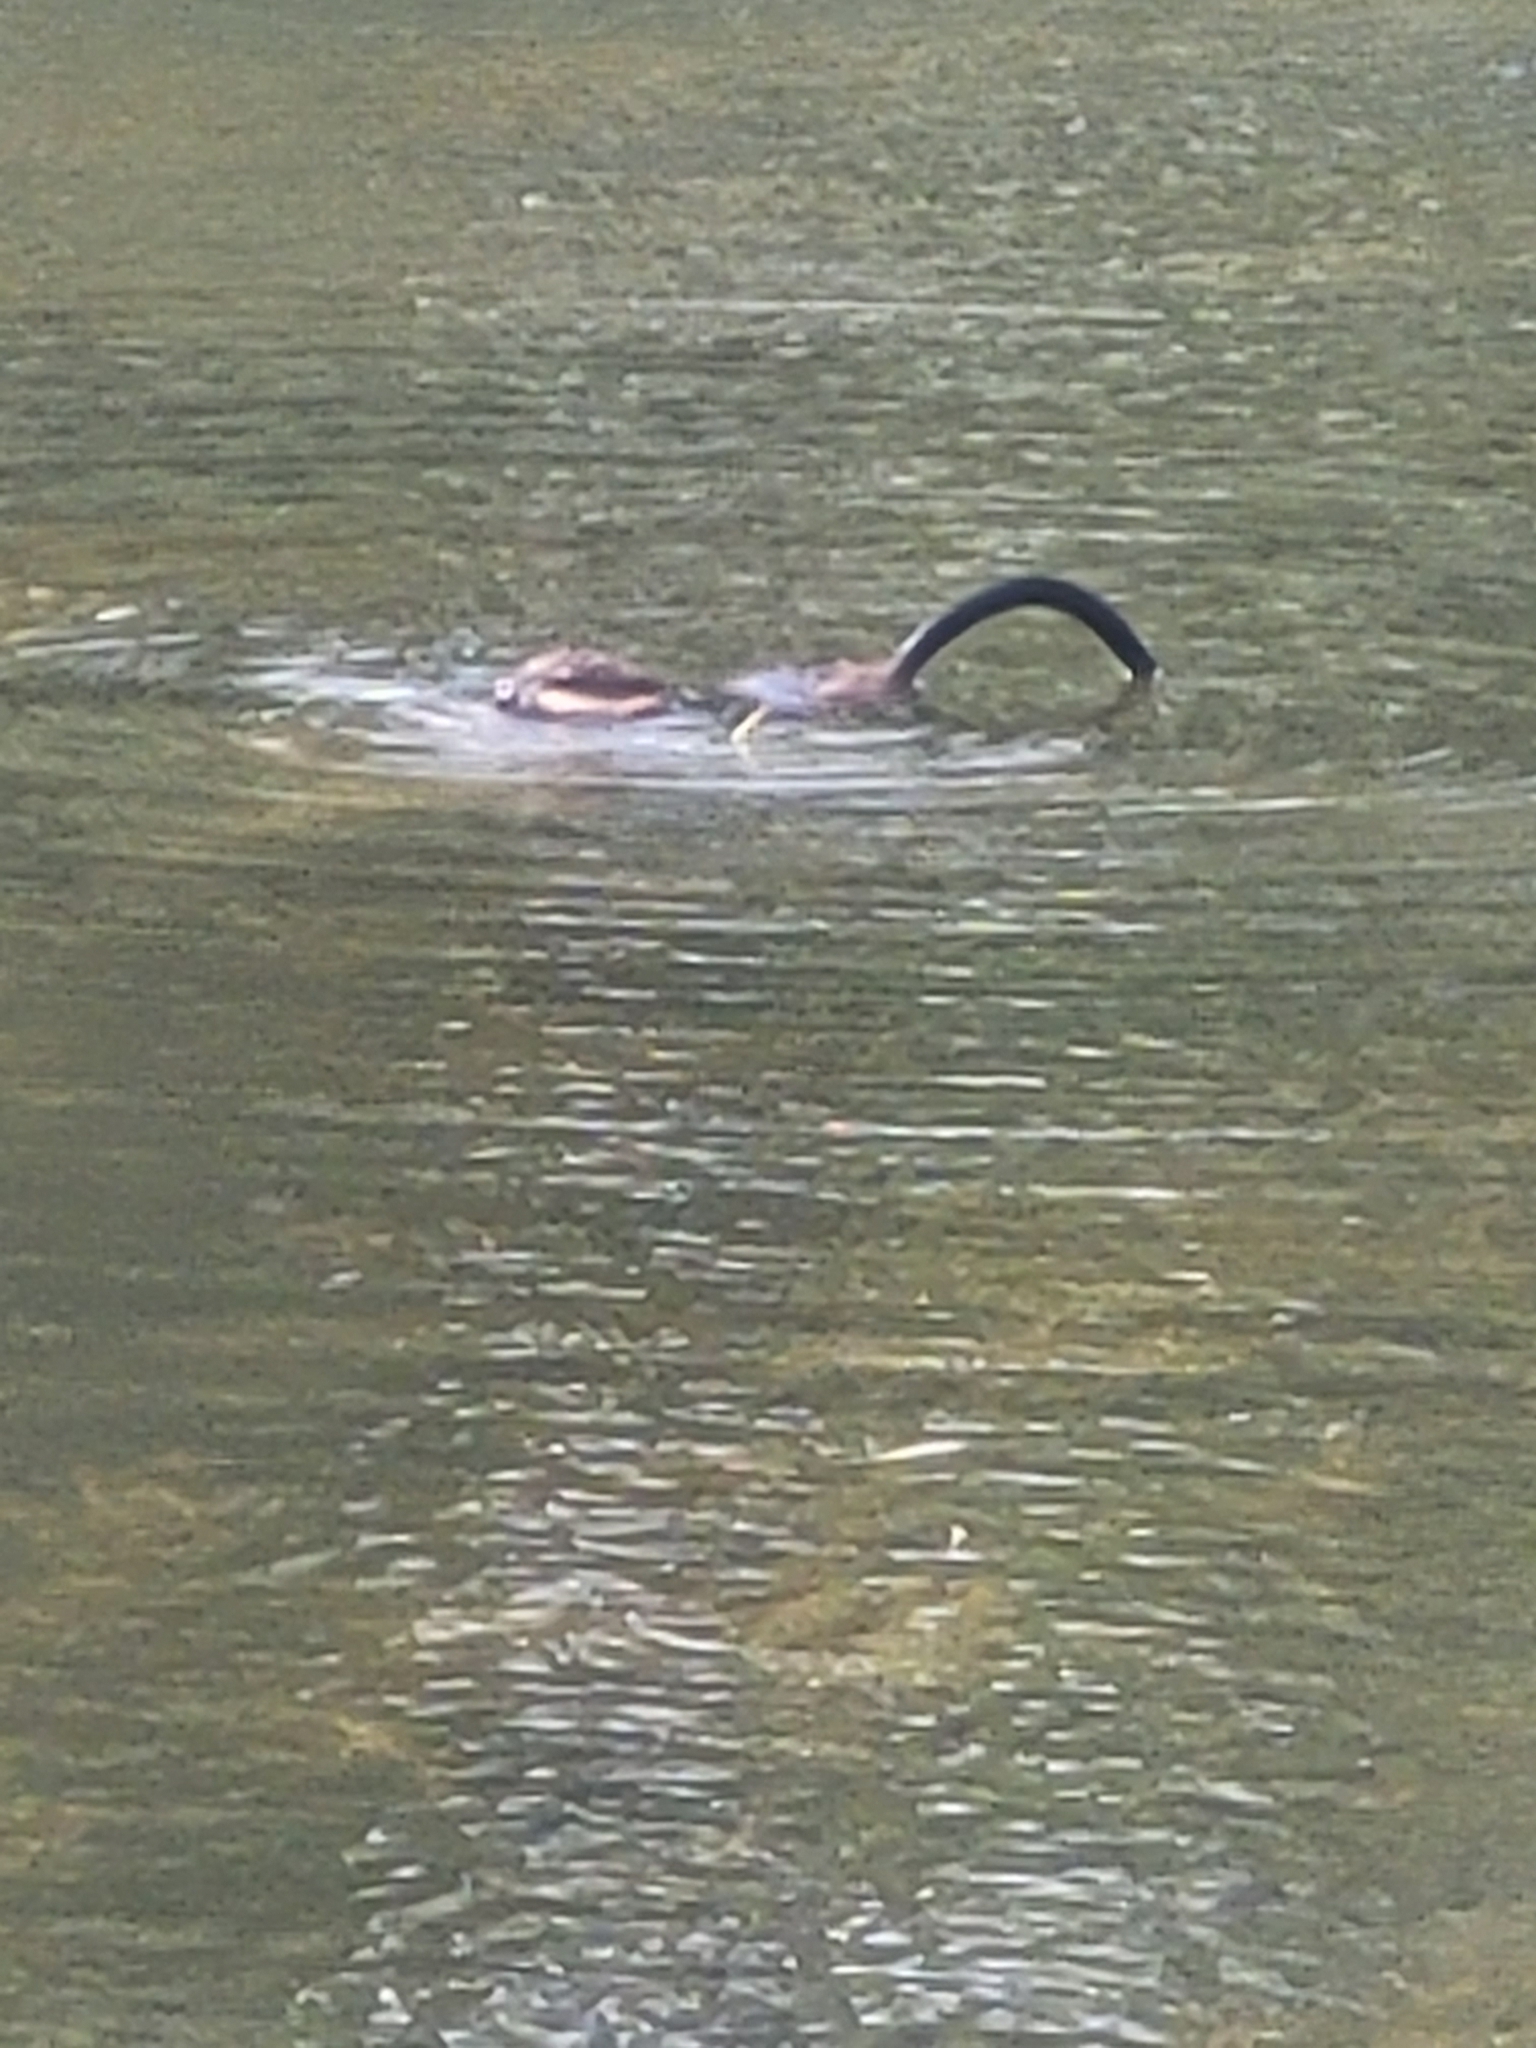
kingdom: Animalia
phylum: Chordata
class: Mammalia
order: Rodentia
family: Cricetidae
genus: Ondatra
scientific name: Ondatra zibethicus
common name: Muskrat
